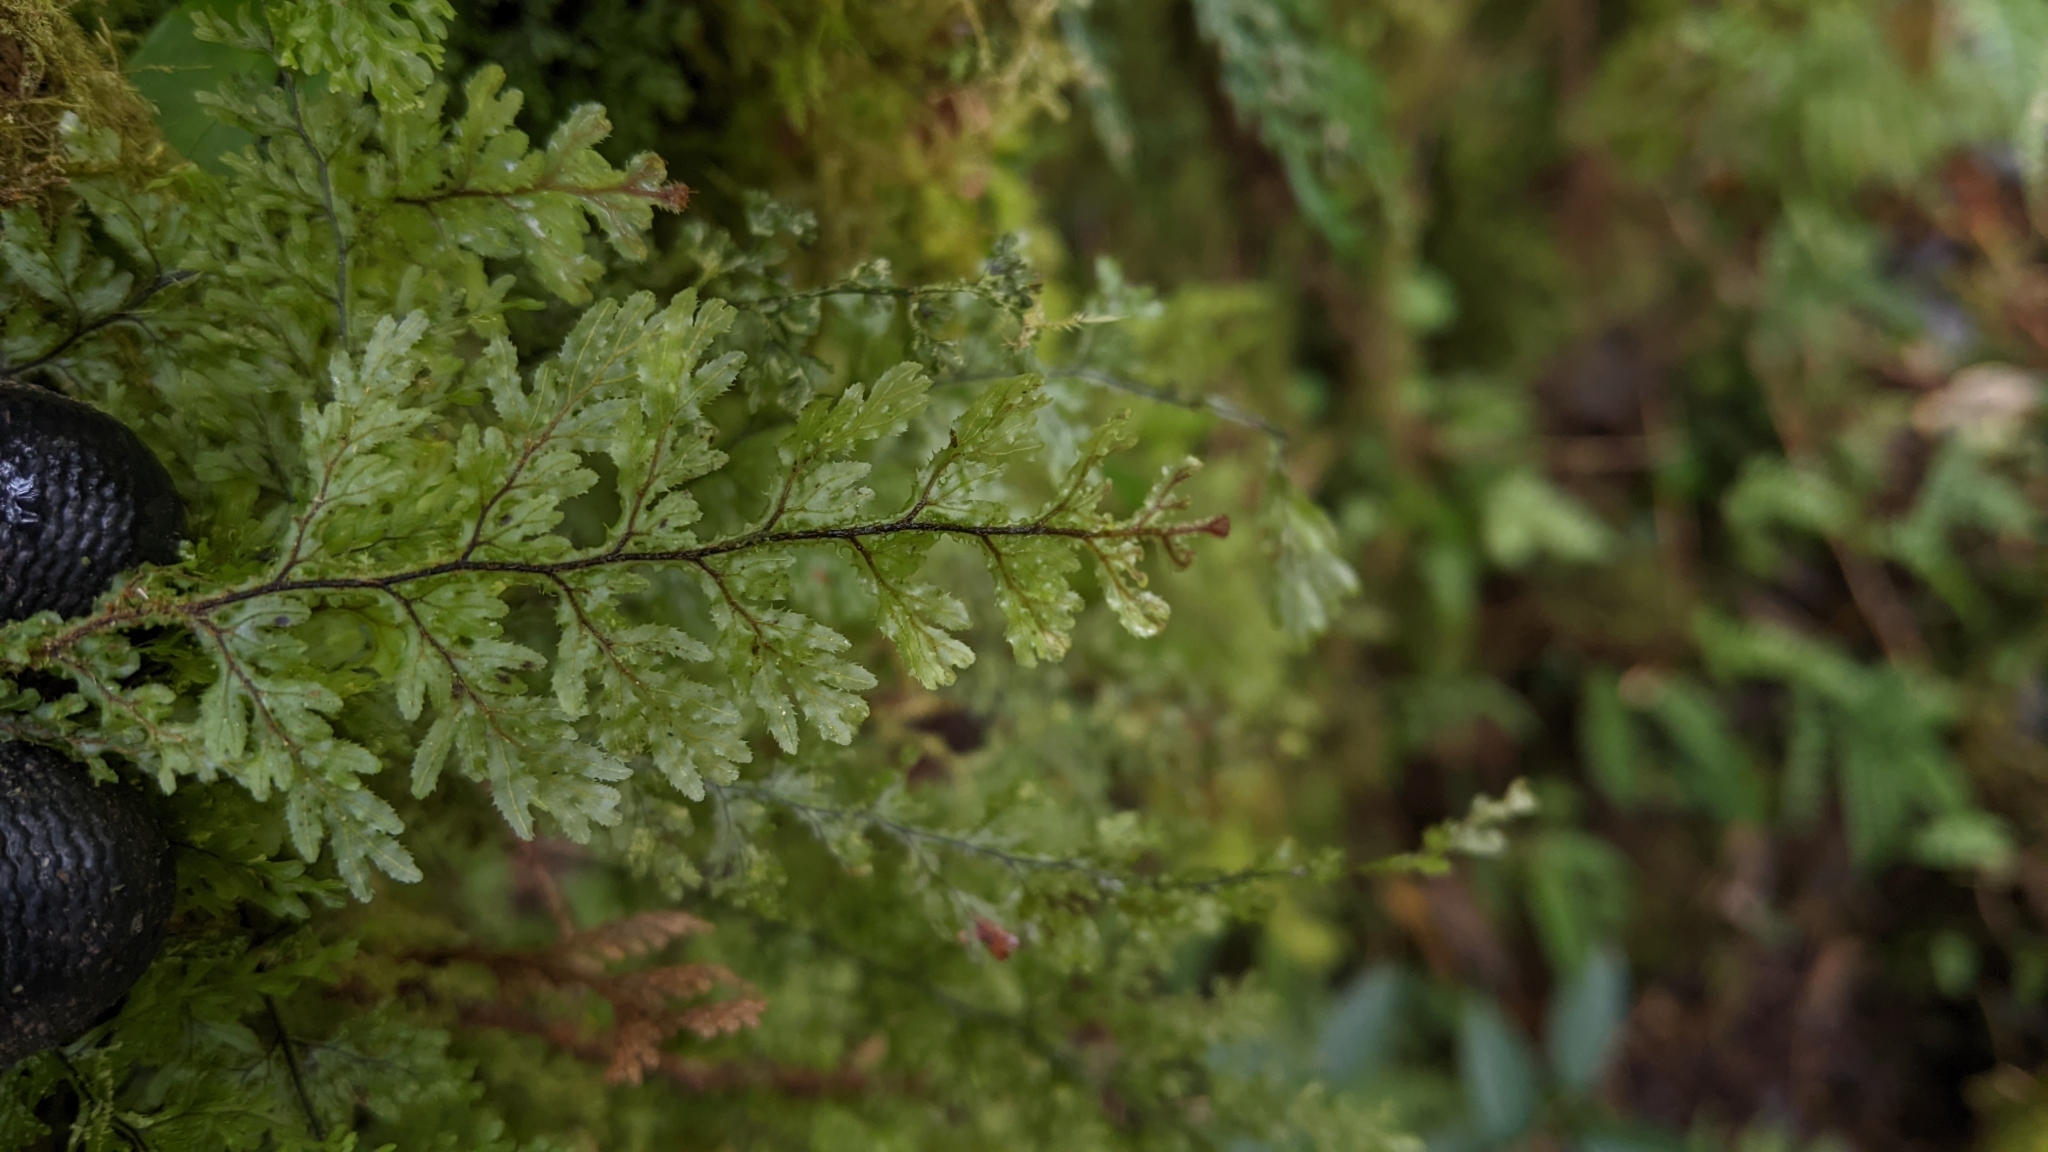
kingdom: Plantae
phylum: Tracheophyta
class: Polypodiopsida
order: Hymenophyllales
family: Hymenophyllaceae
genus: Hymenophyllum
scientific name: Hymenophyllum okadae
